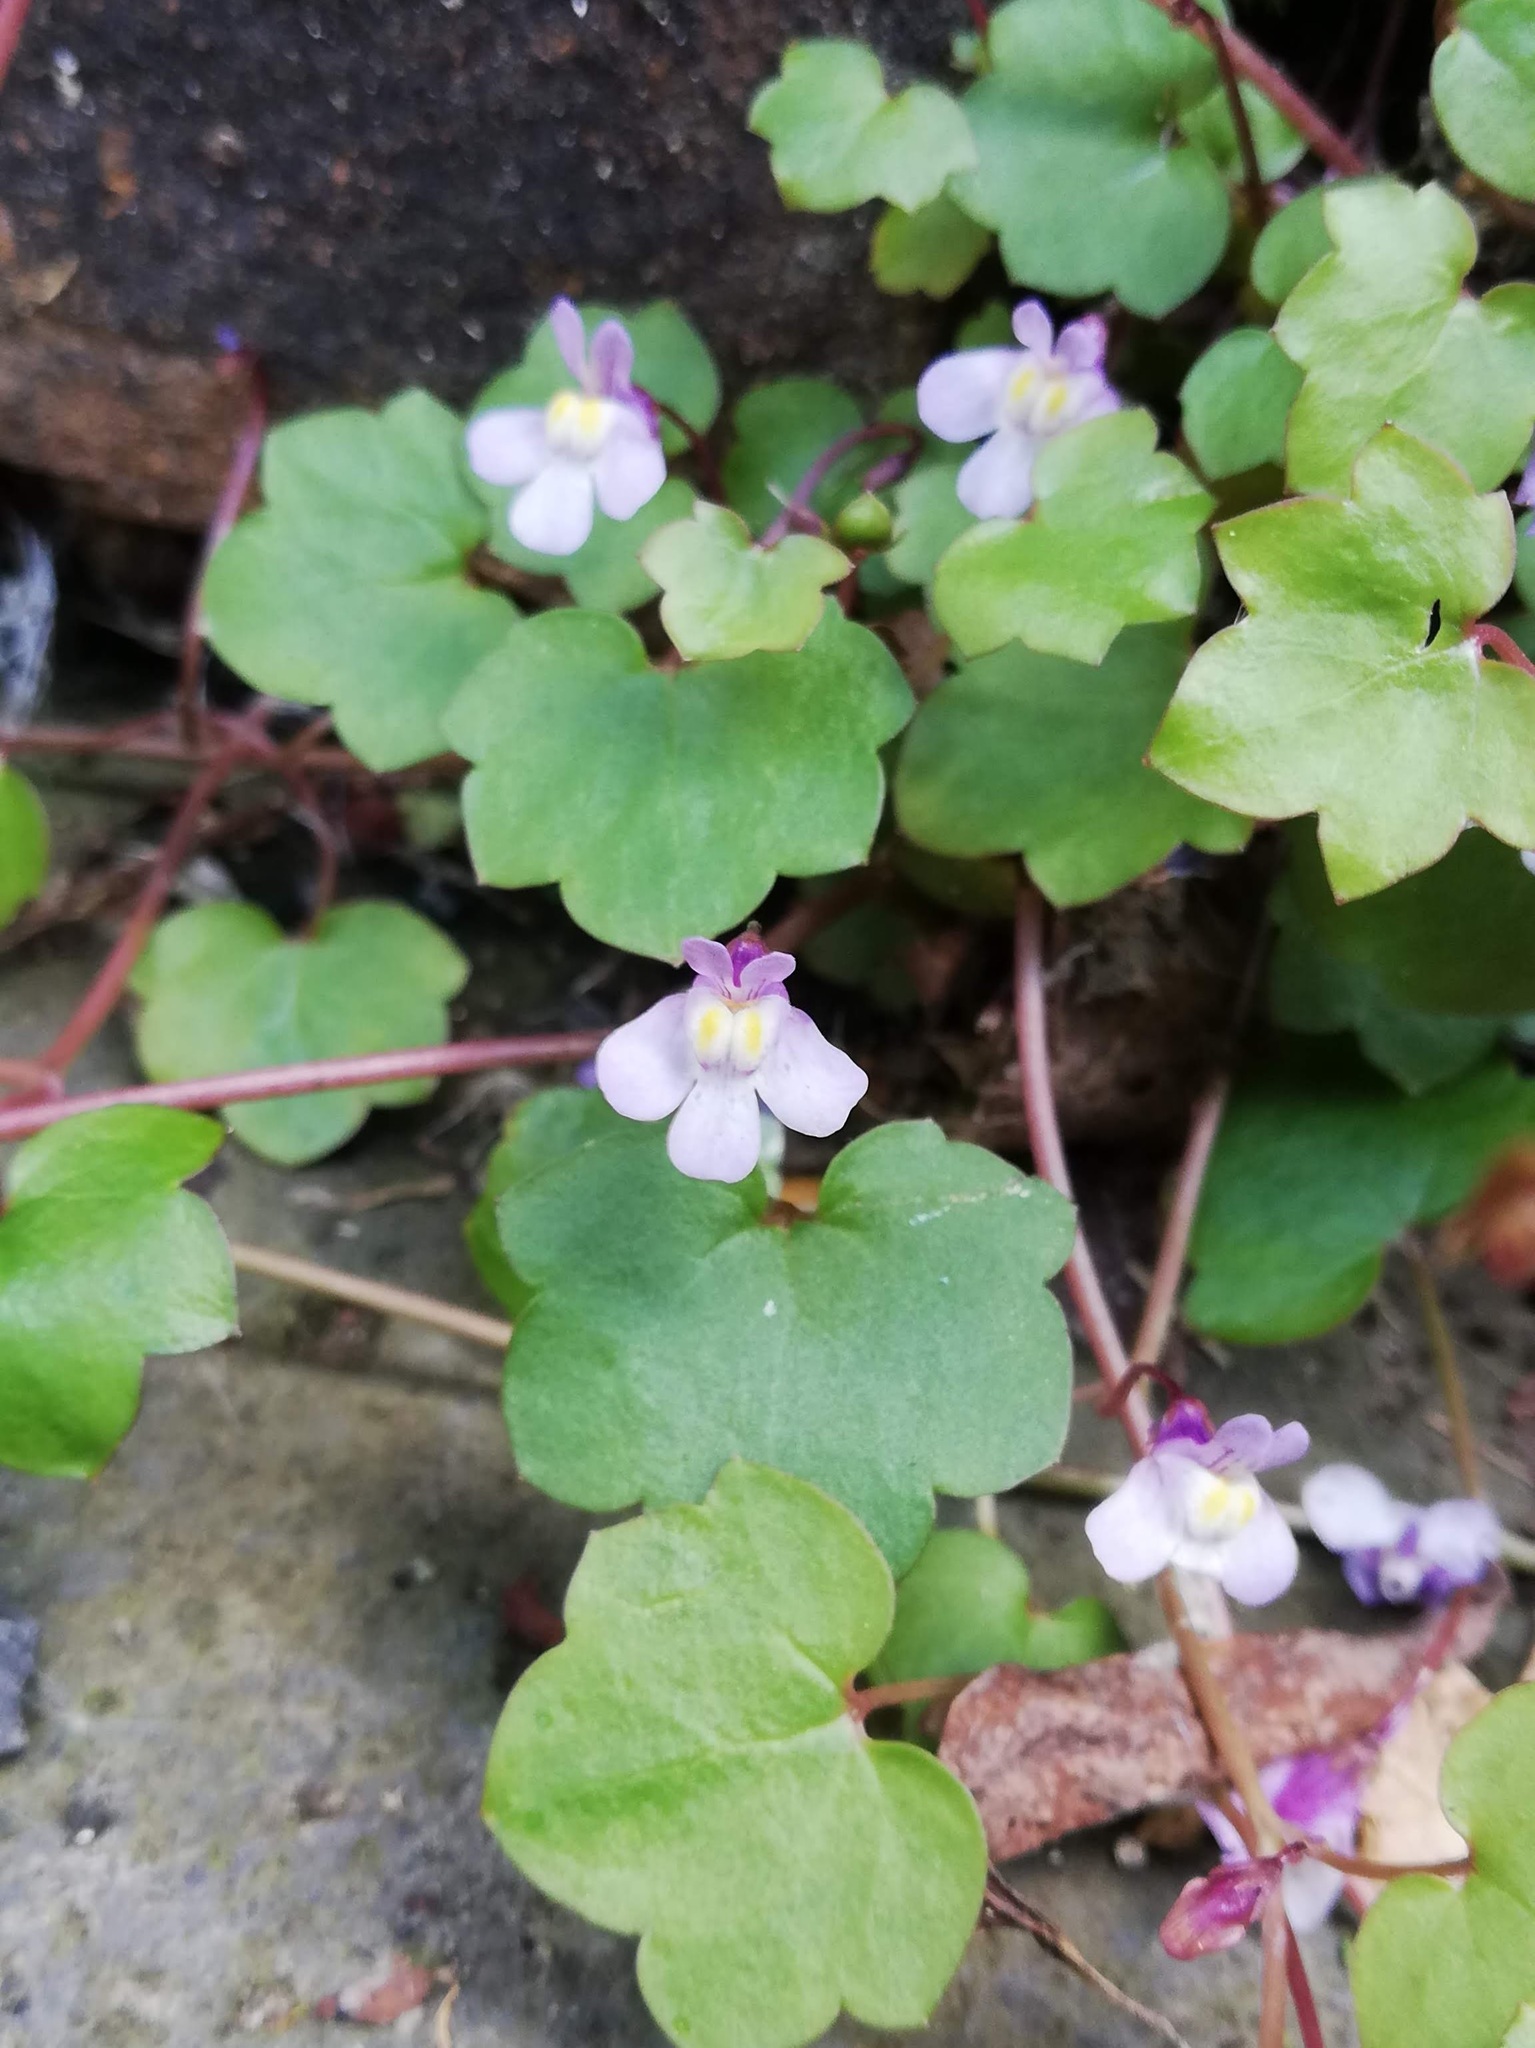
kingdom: Plantae
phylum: Tracheophyta
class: Magnoliopsida
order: Lamiales
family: Plantaginaceae
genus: Cymbalaria
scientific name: Cymbalaria muralis
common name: Ivy-leaved toadflax
